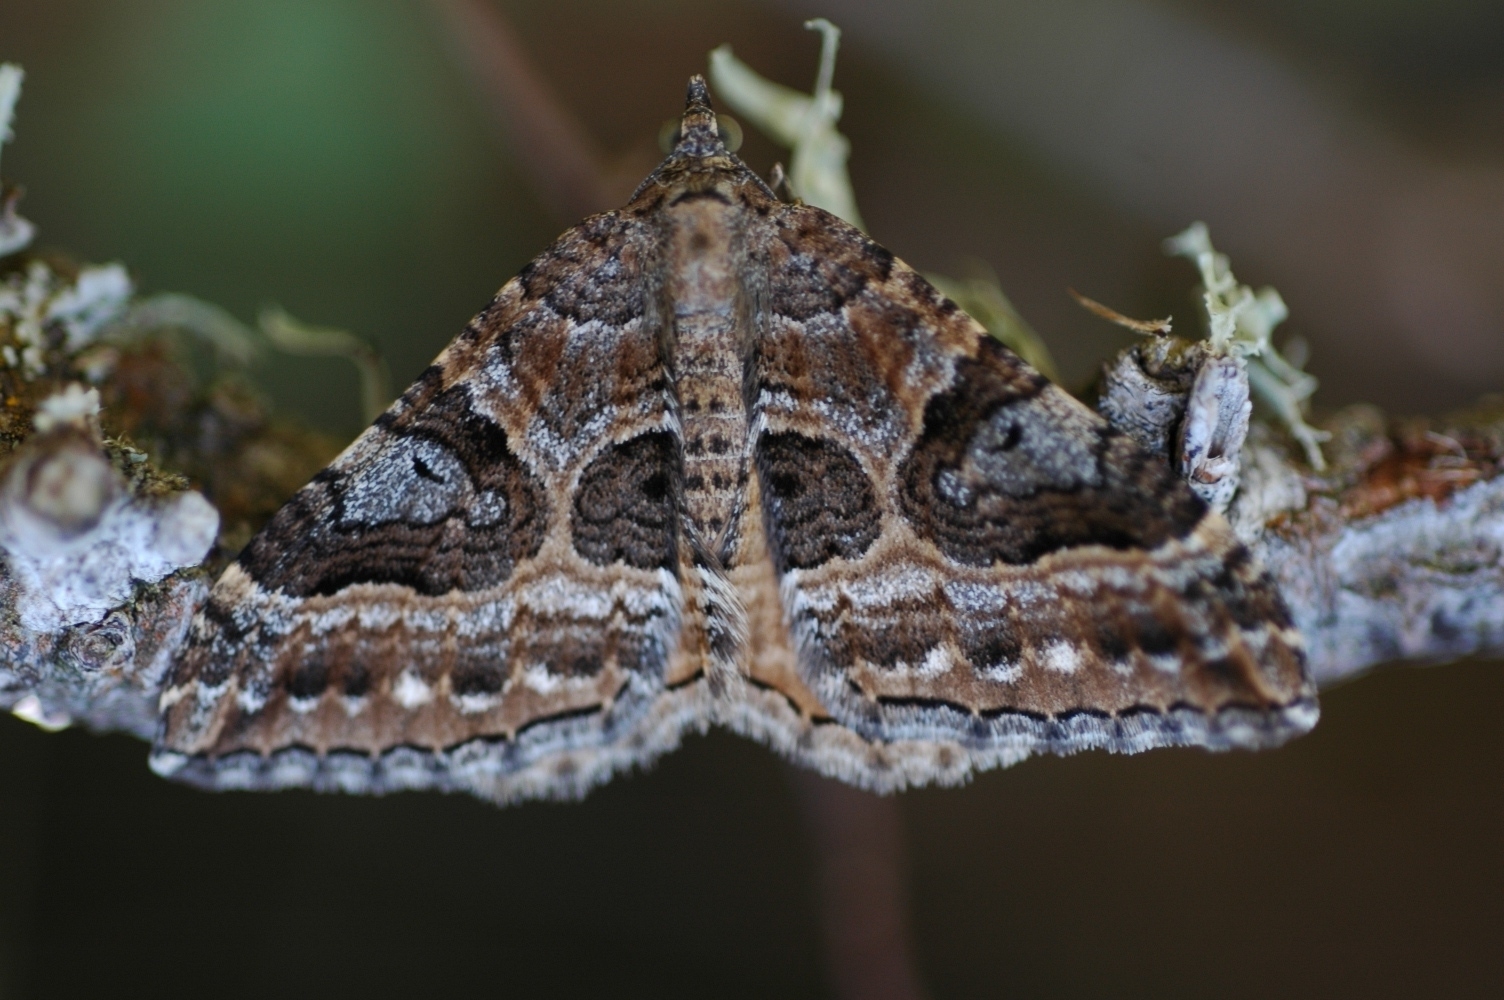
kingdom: Animalia
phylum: Arthropoda
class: Insecta
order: Lepidoptera
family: Geometridae
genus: Hydriomena
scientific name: Hydriomena deltoidata
